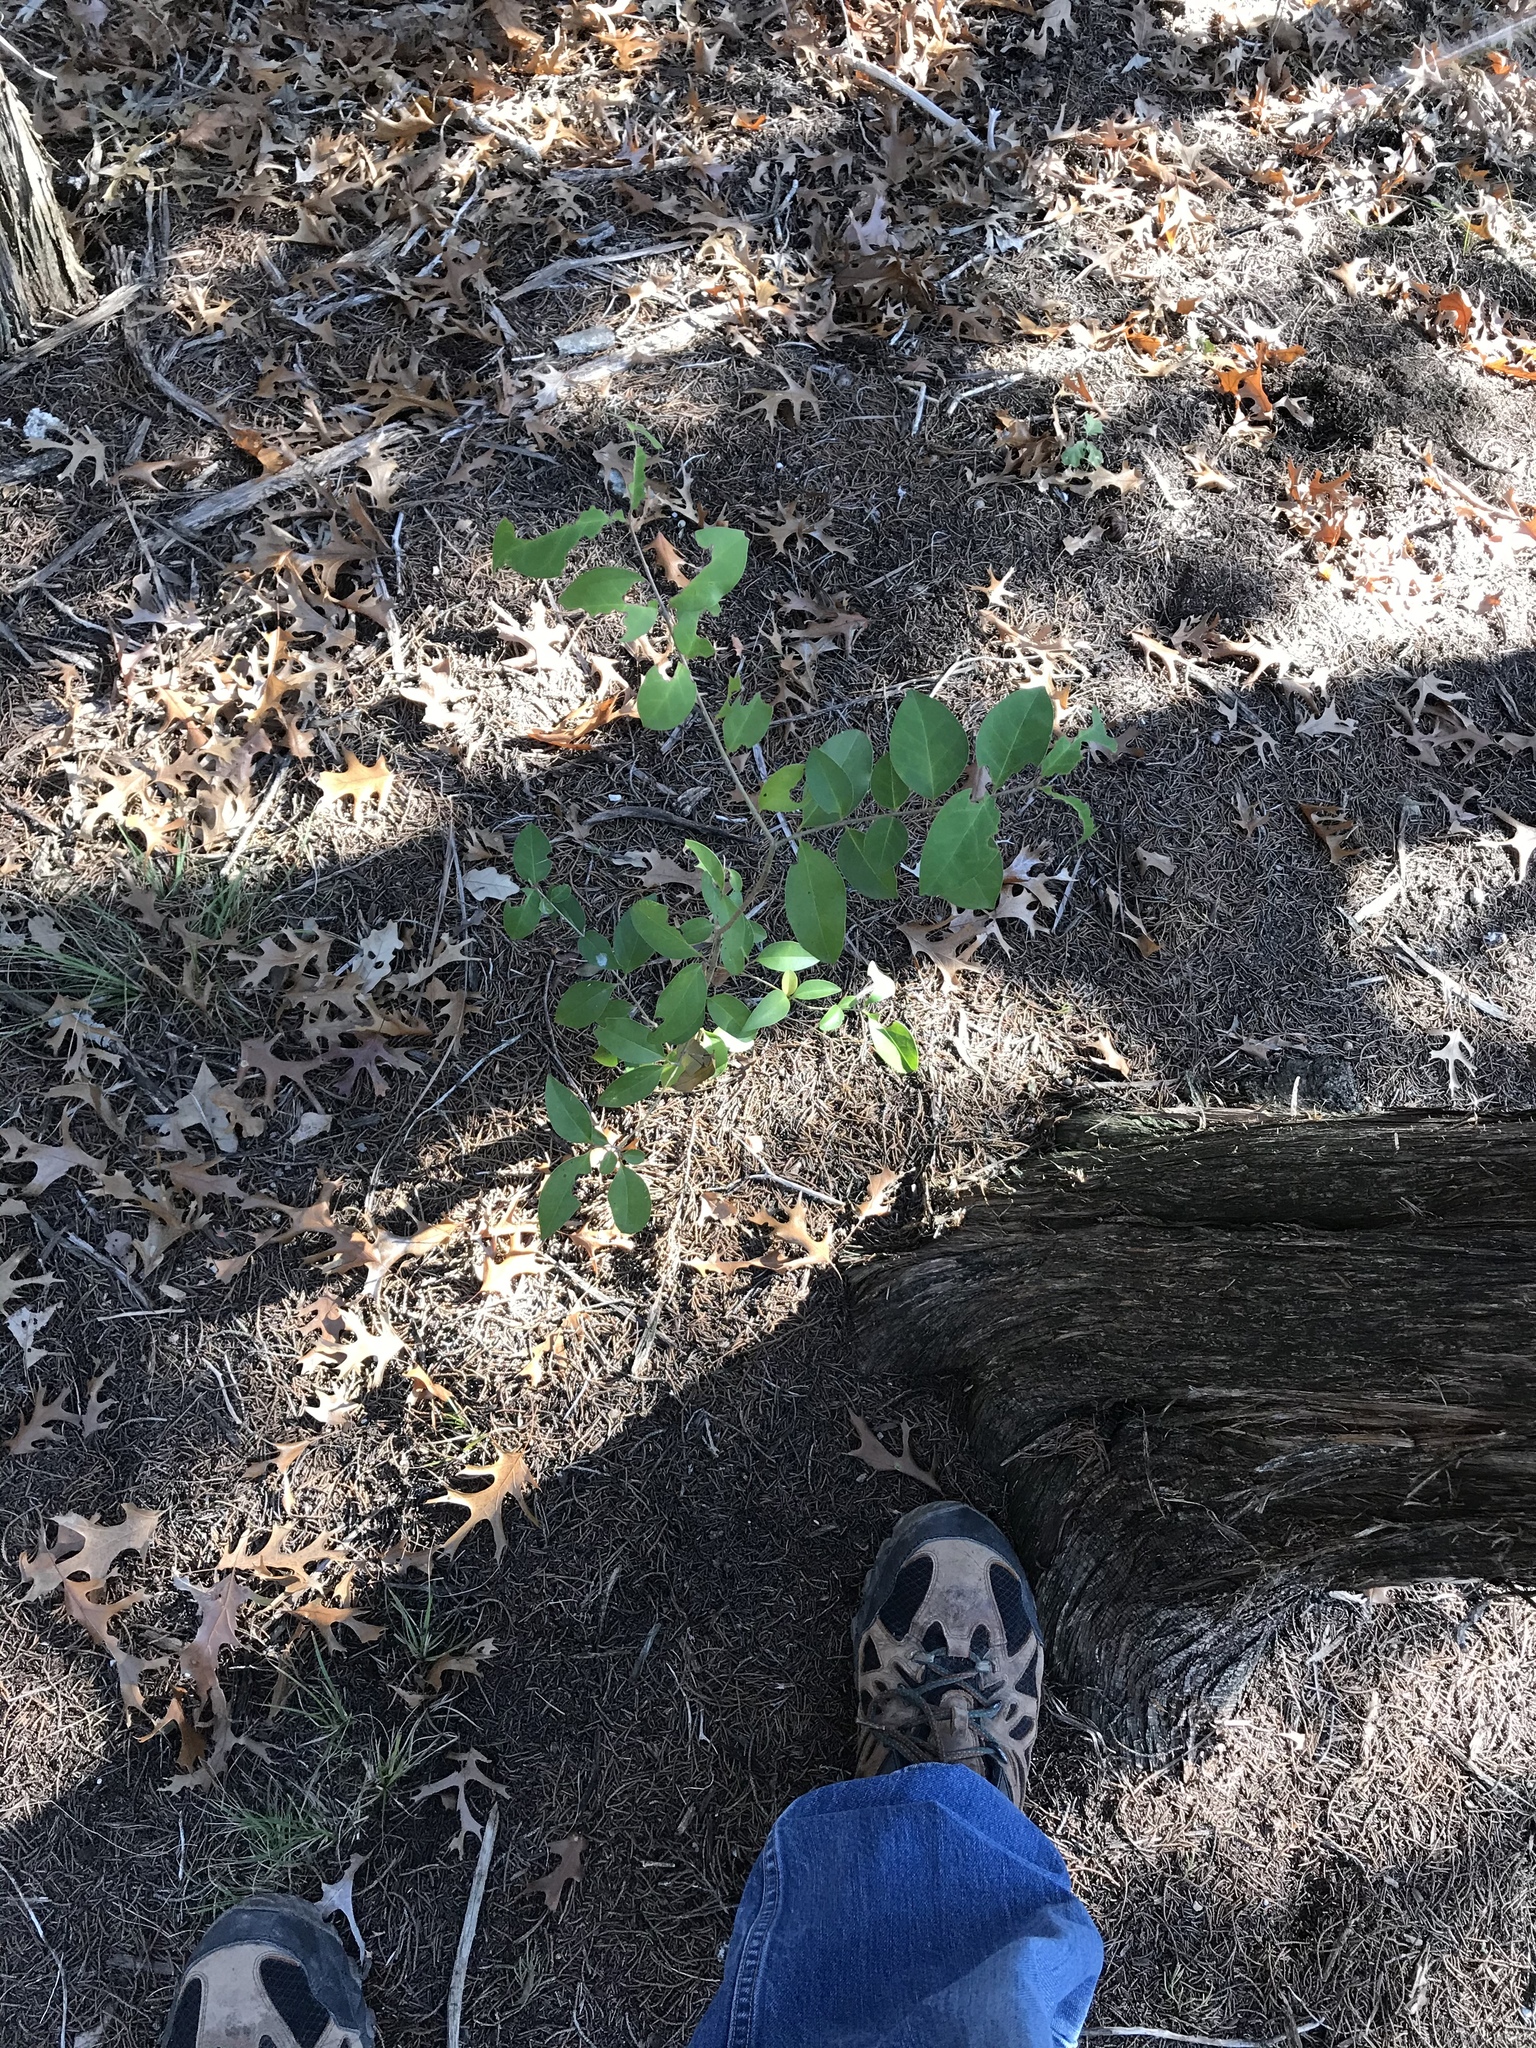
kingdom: Plantae
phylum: Tracheophyta
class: Magnoliopsida
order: Lamiales
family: Oleaceae
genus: Ligustrum
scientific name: Ligustrum lucidum
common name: Glossy privet
